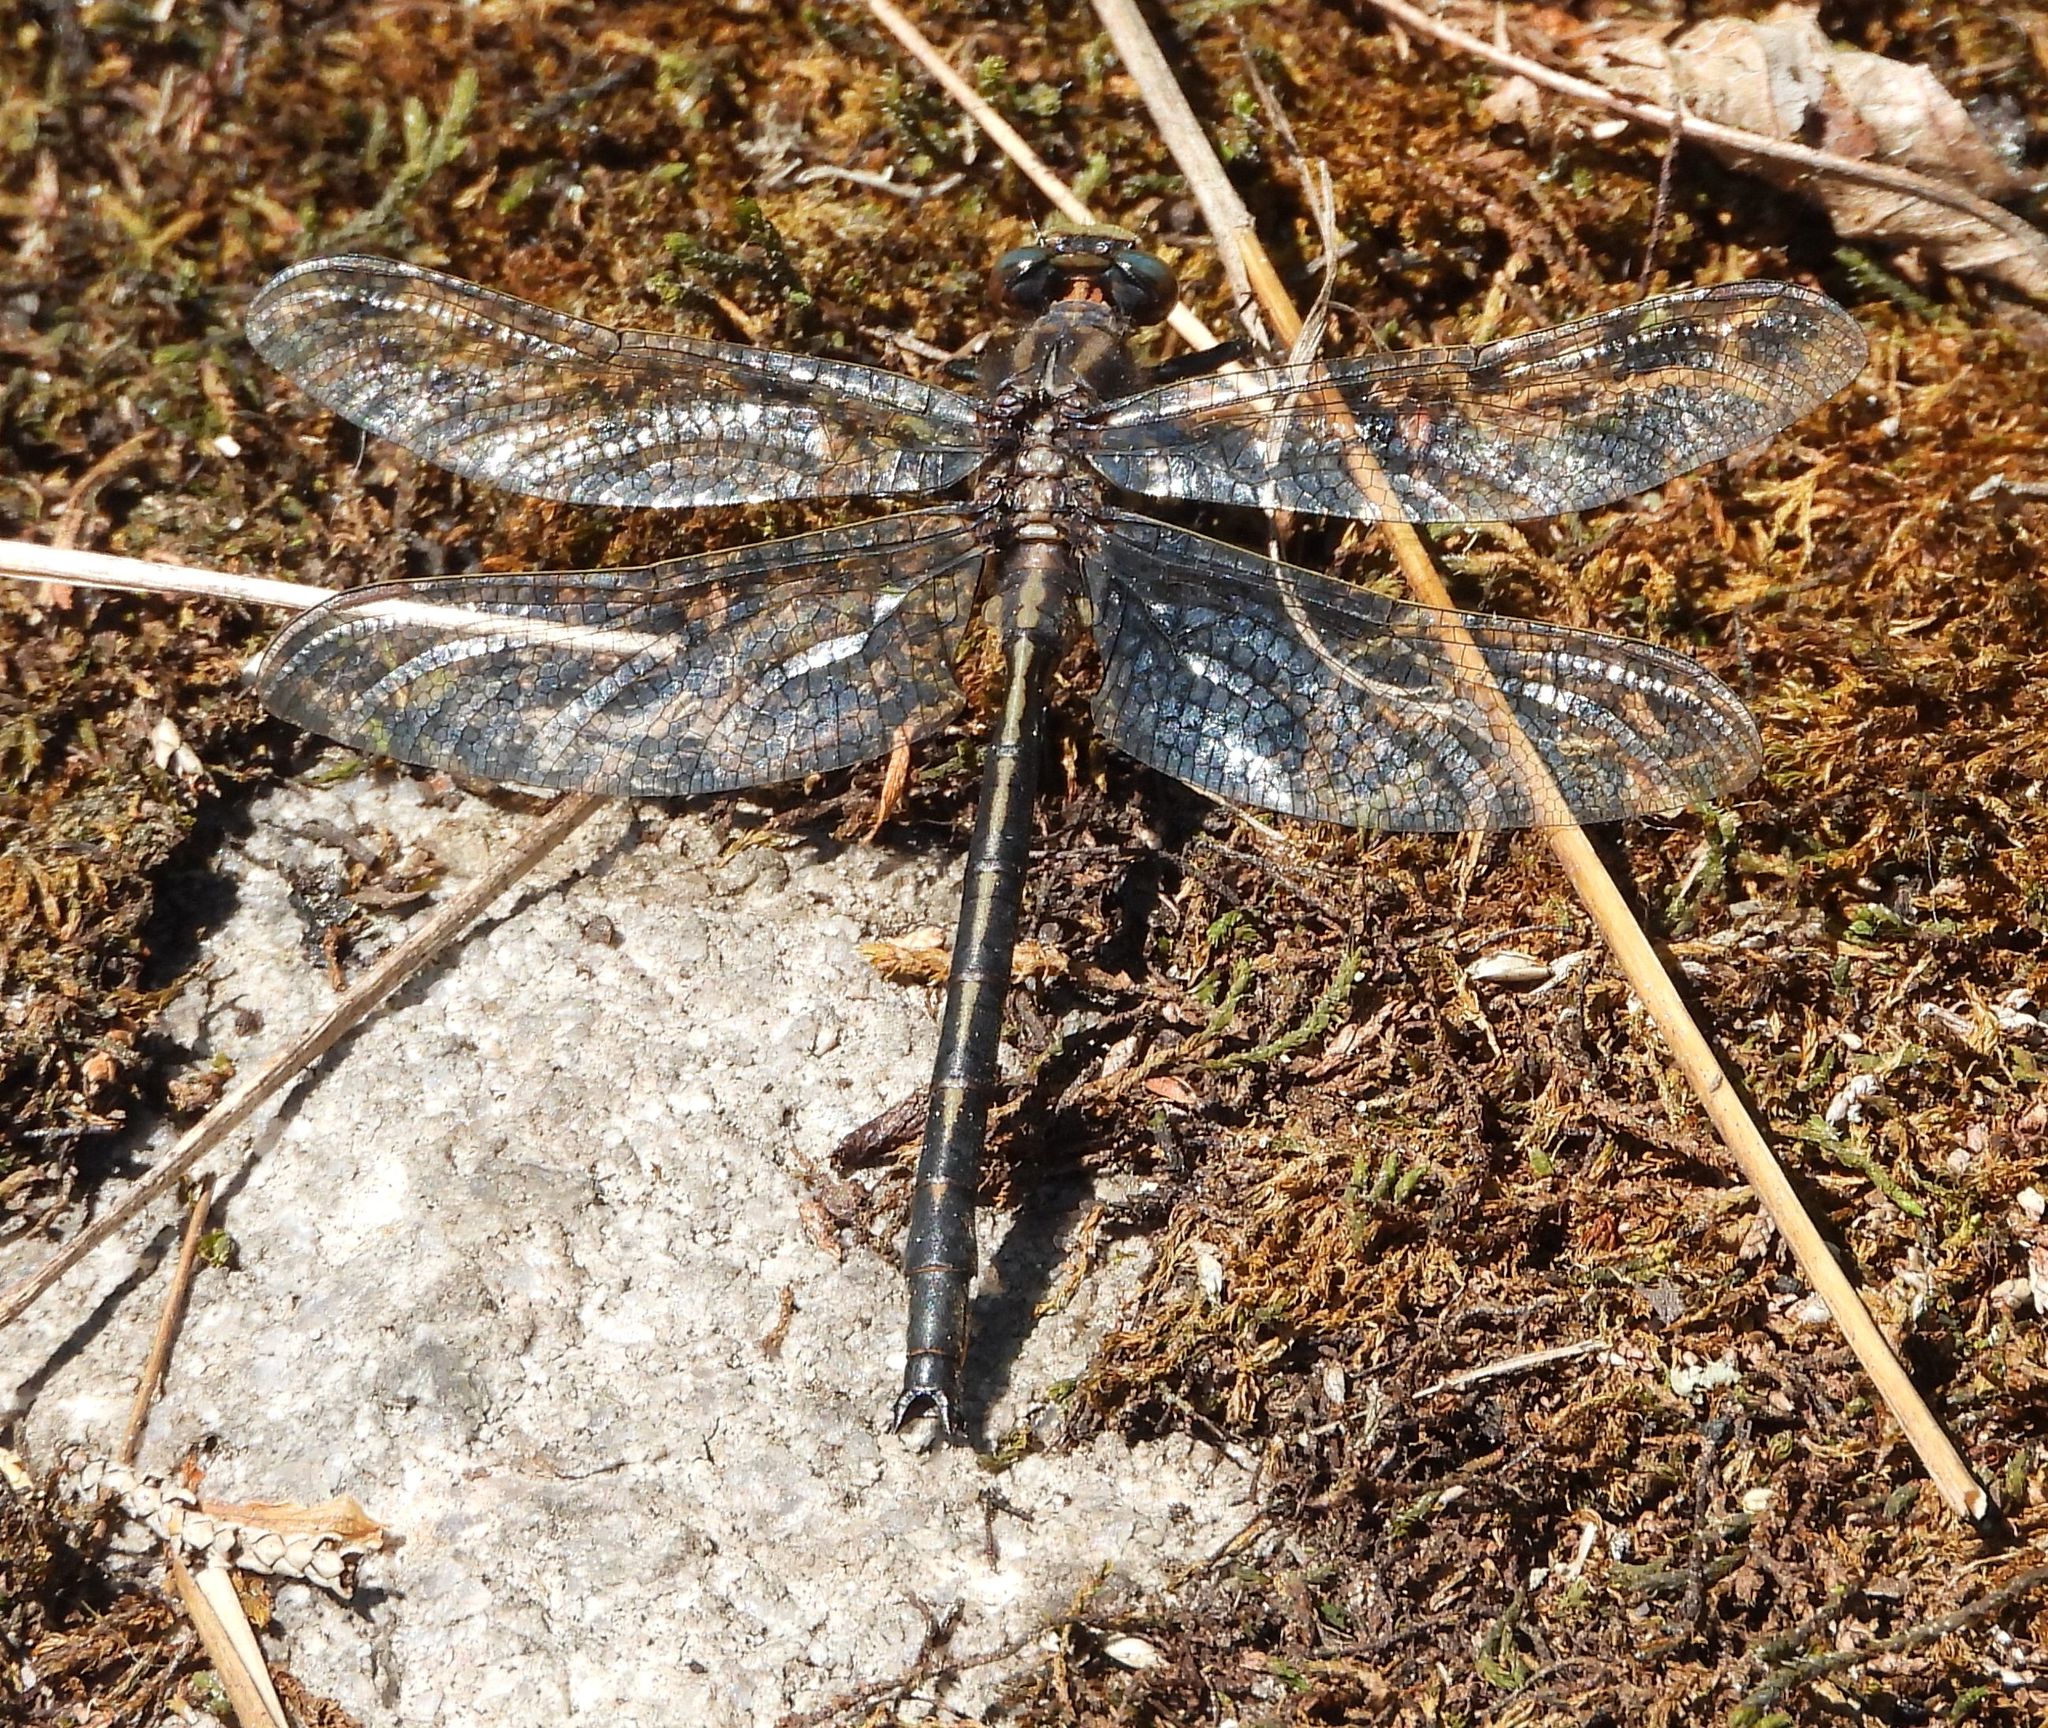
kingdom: Animalia
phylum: Arthropoda
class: Insecta
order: Odonata
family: Gomphidae
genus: Phanogomphus
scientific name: Phanogomphus spicatus
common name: Dusky clubtail
